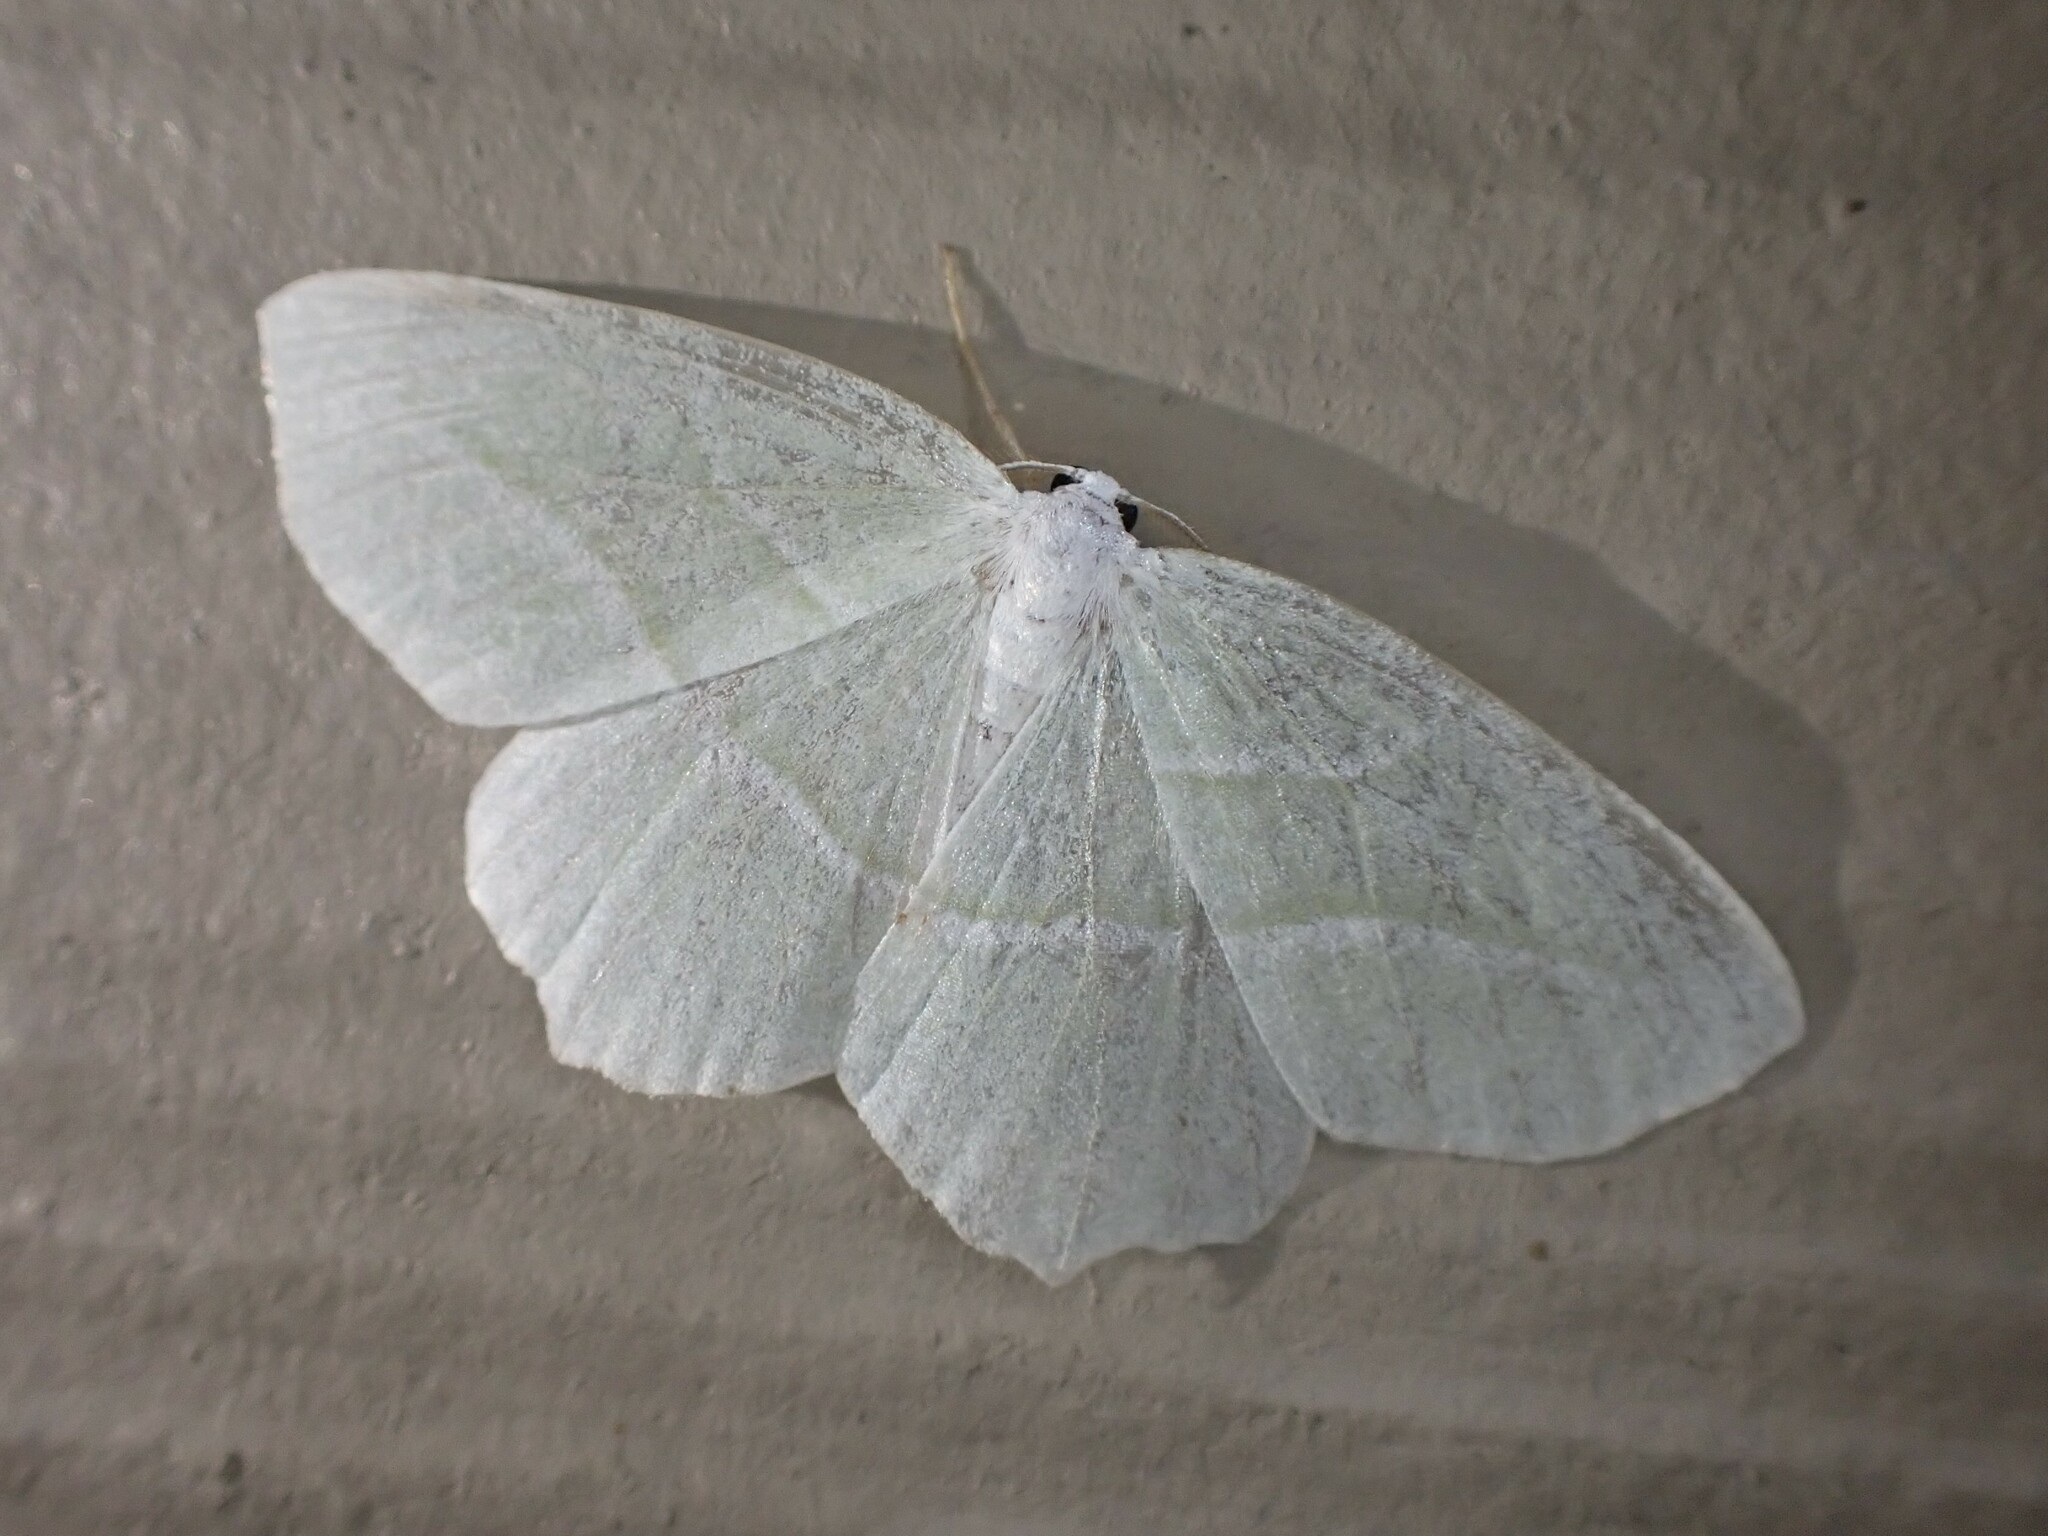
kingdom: Animalia
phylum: Arthropoda
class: Insecta
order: Lepidoptera
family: Geometridae
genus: Campaea
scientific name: Campaea perlata
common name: Fringed looper
